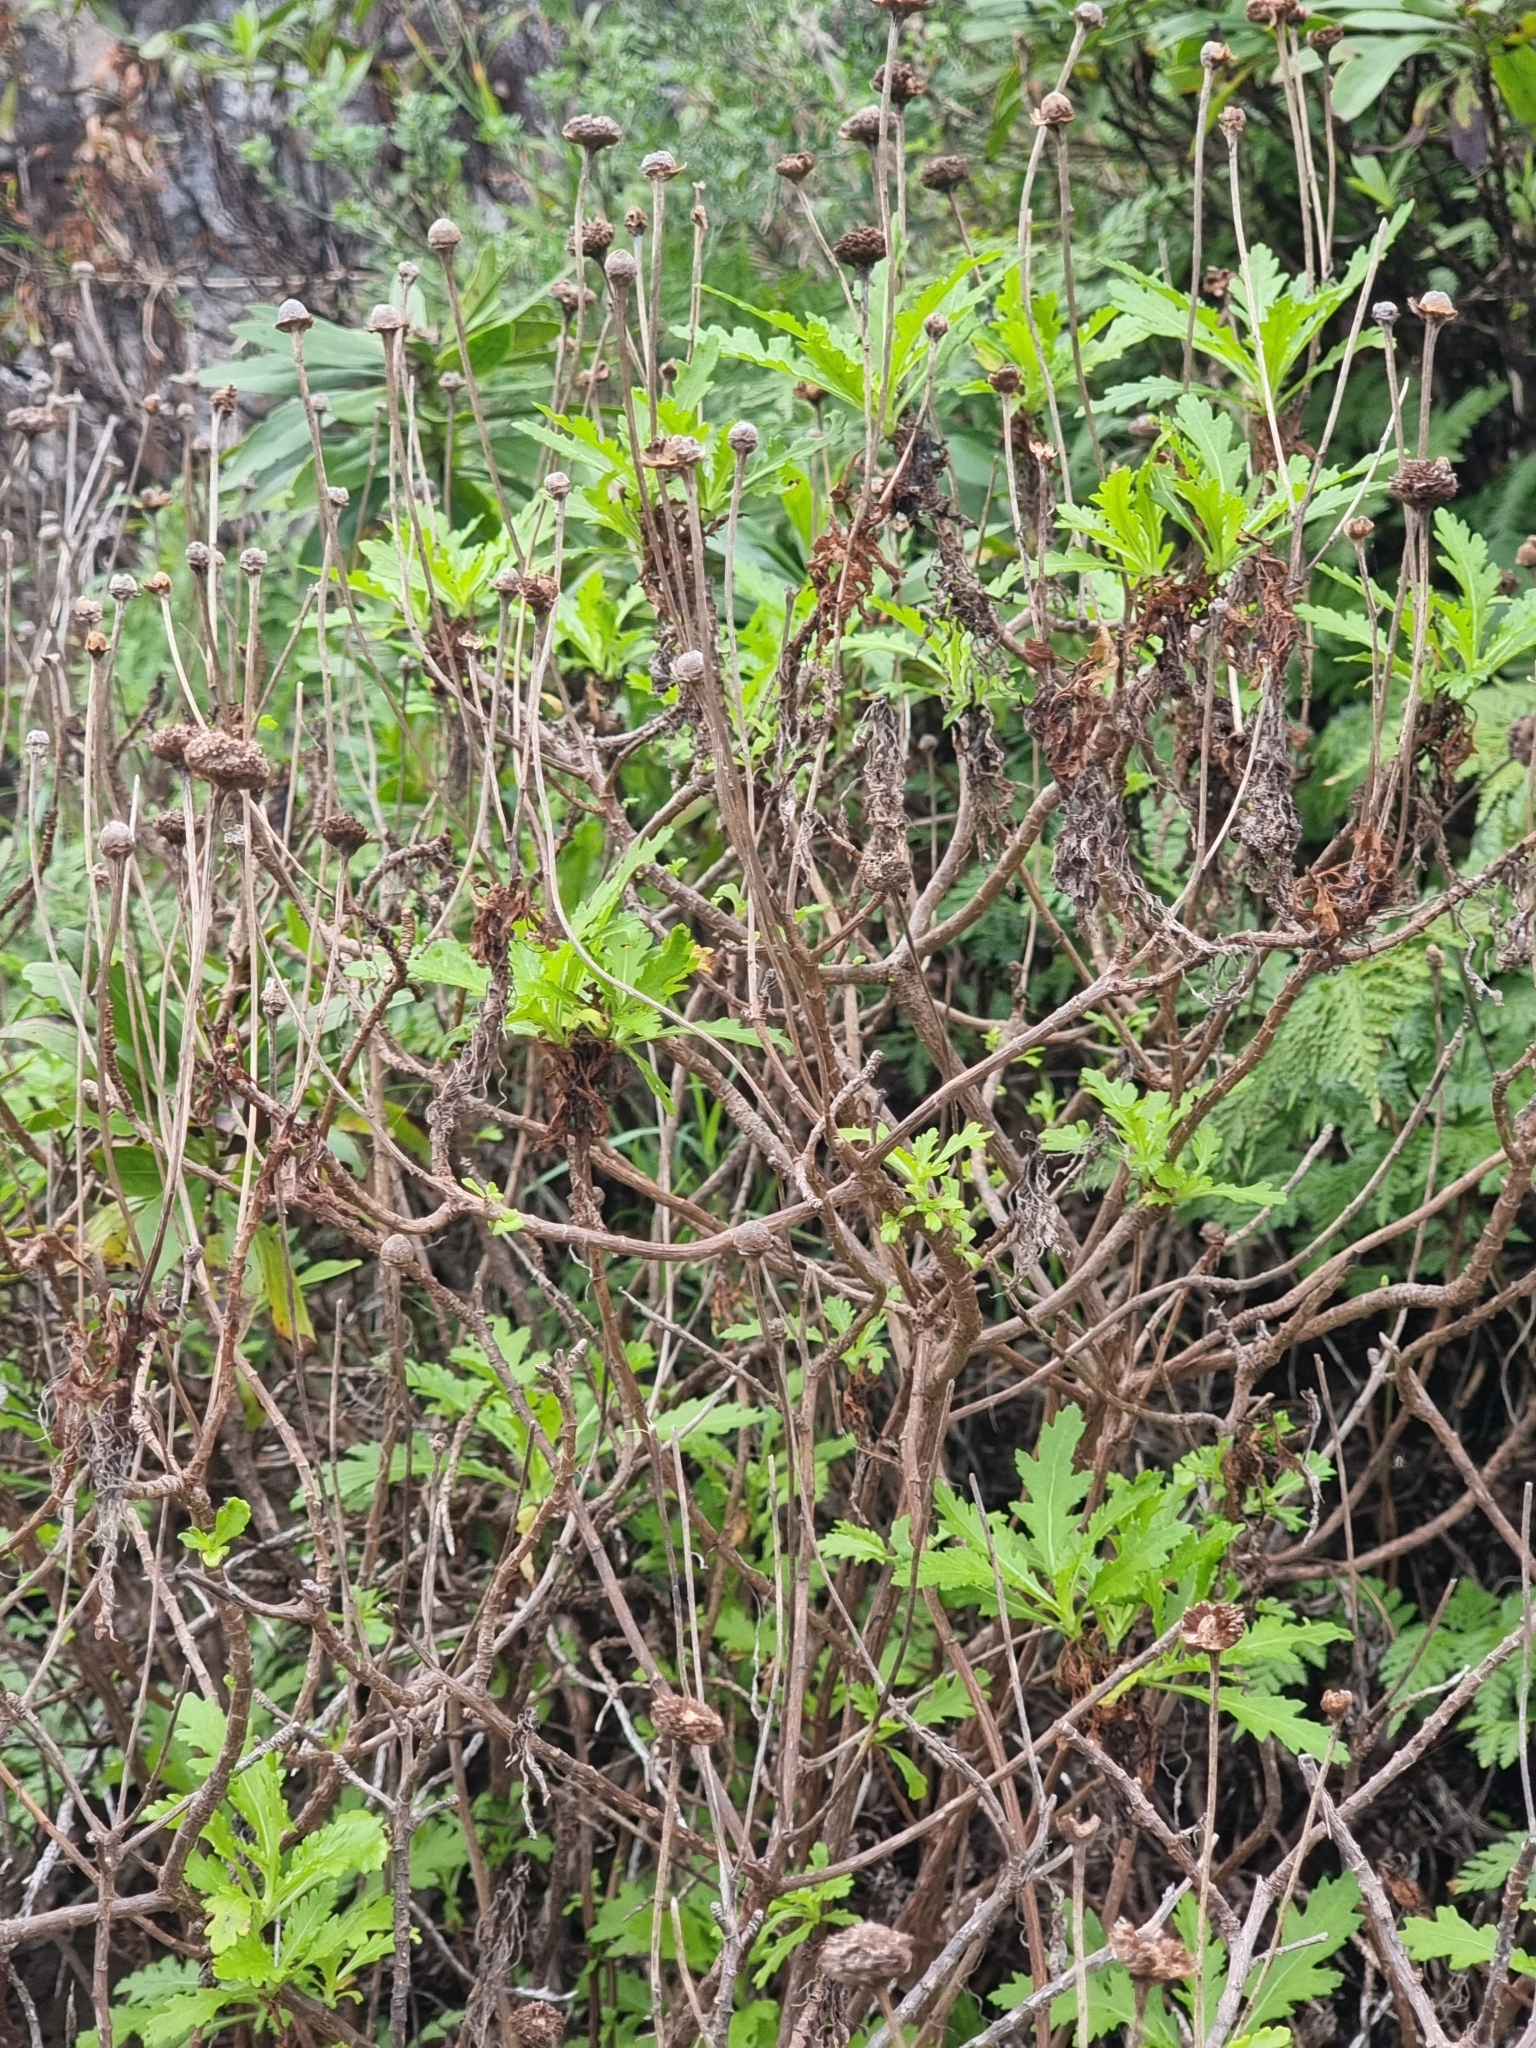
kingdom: Plantae
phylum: Tracheophyta
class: Magnoliopsida
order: Asterales
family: Asteraceae
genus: Argyranthemum
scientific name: Argyranthemum pinnatifidum
